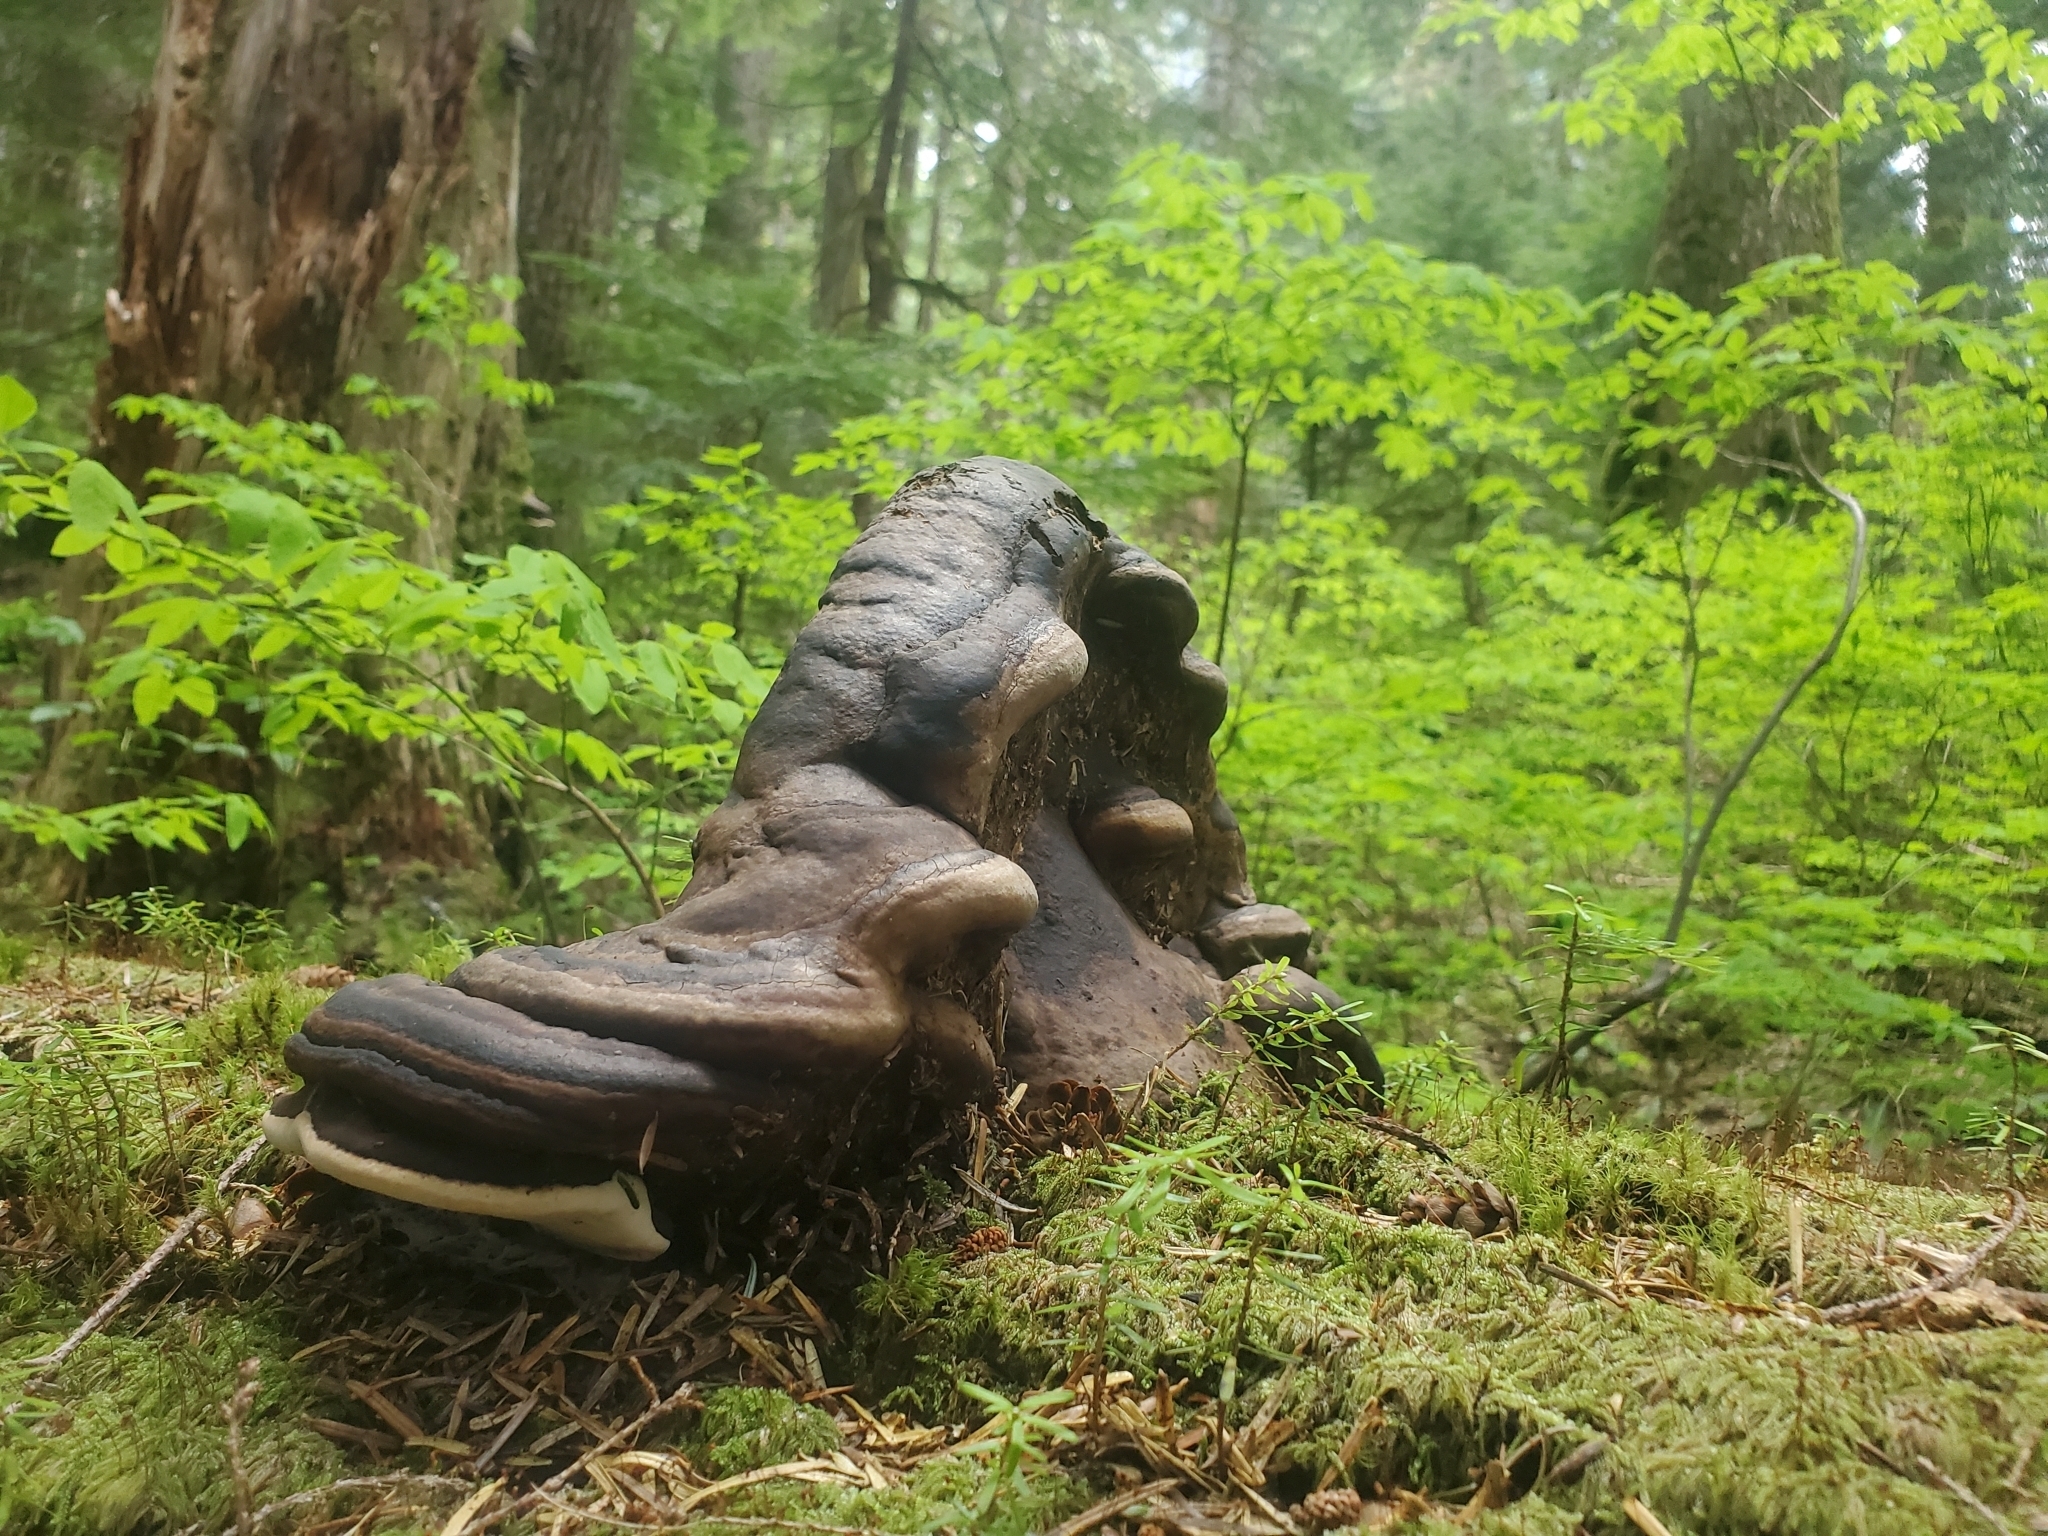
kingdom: Fungi
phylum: Basidiomycota
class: Agaricomycetes
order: Polyporales
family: Fomitopsidaceae
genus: Fomitopsis
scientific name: Fomitopsis ochracea
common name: American brown fomitopsis
